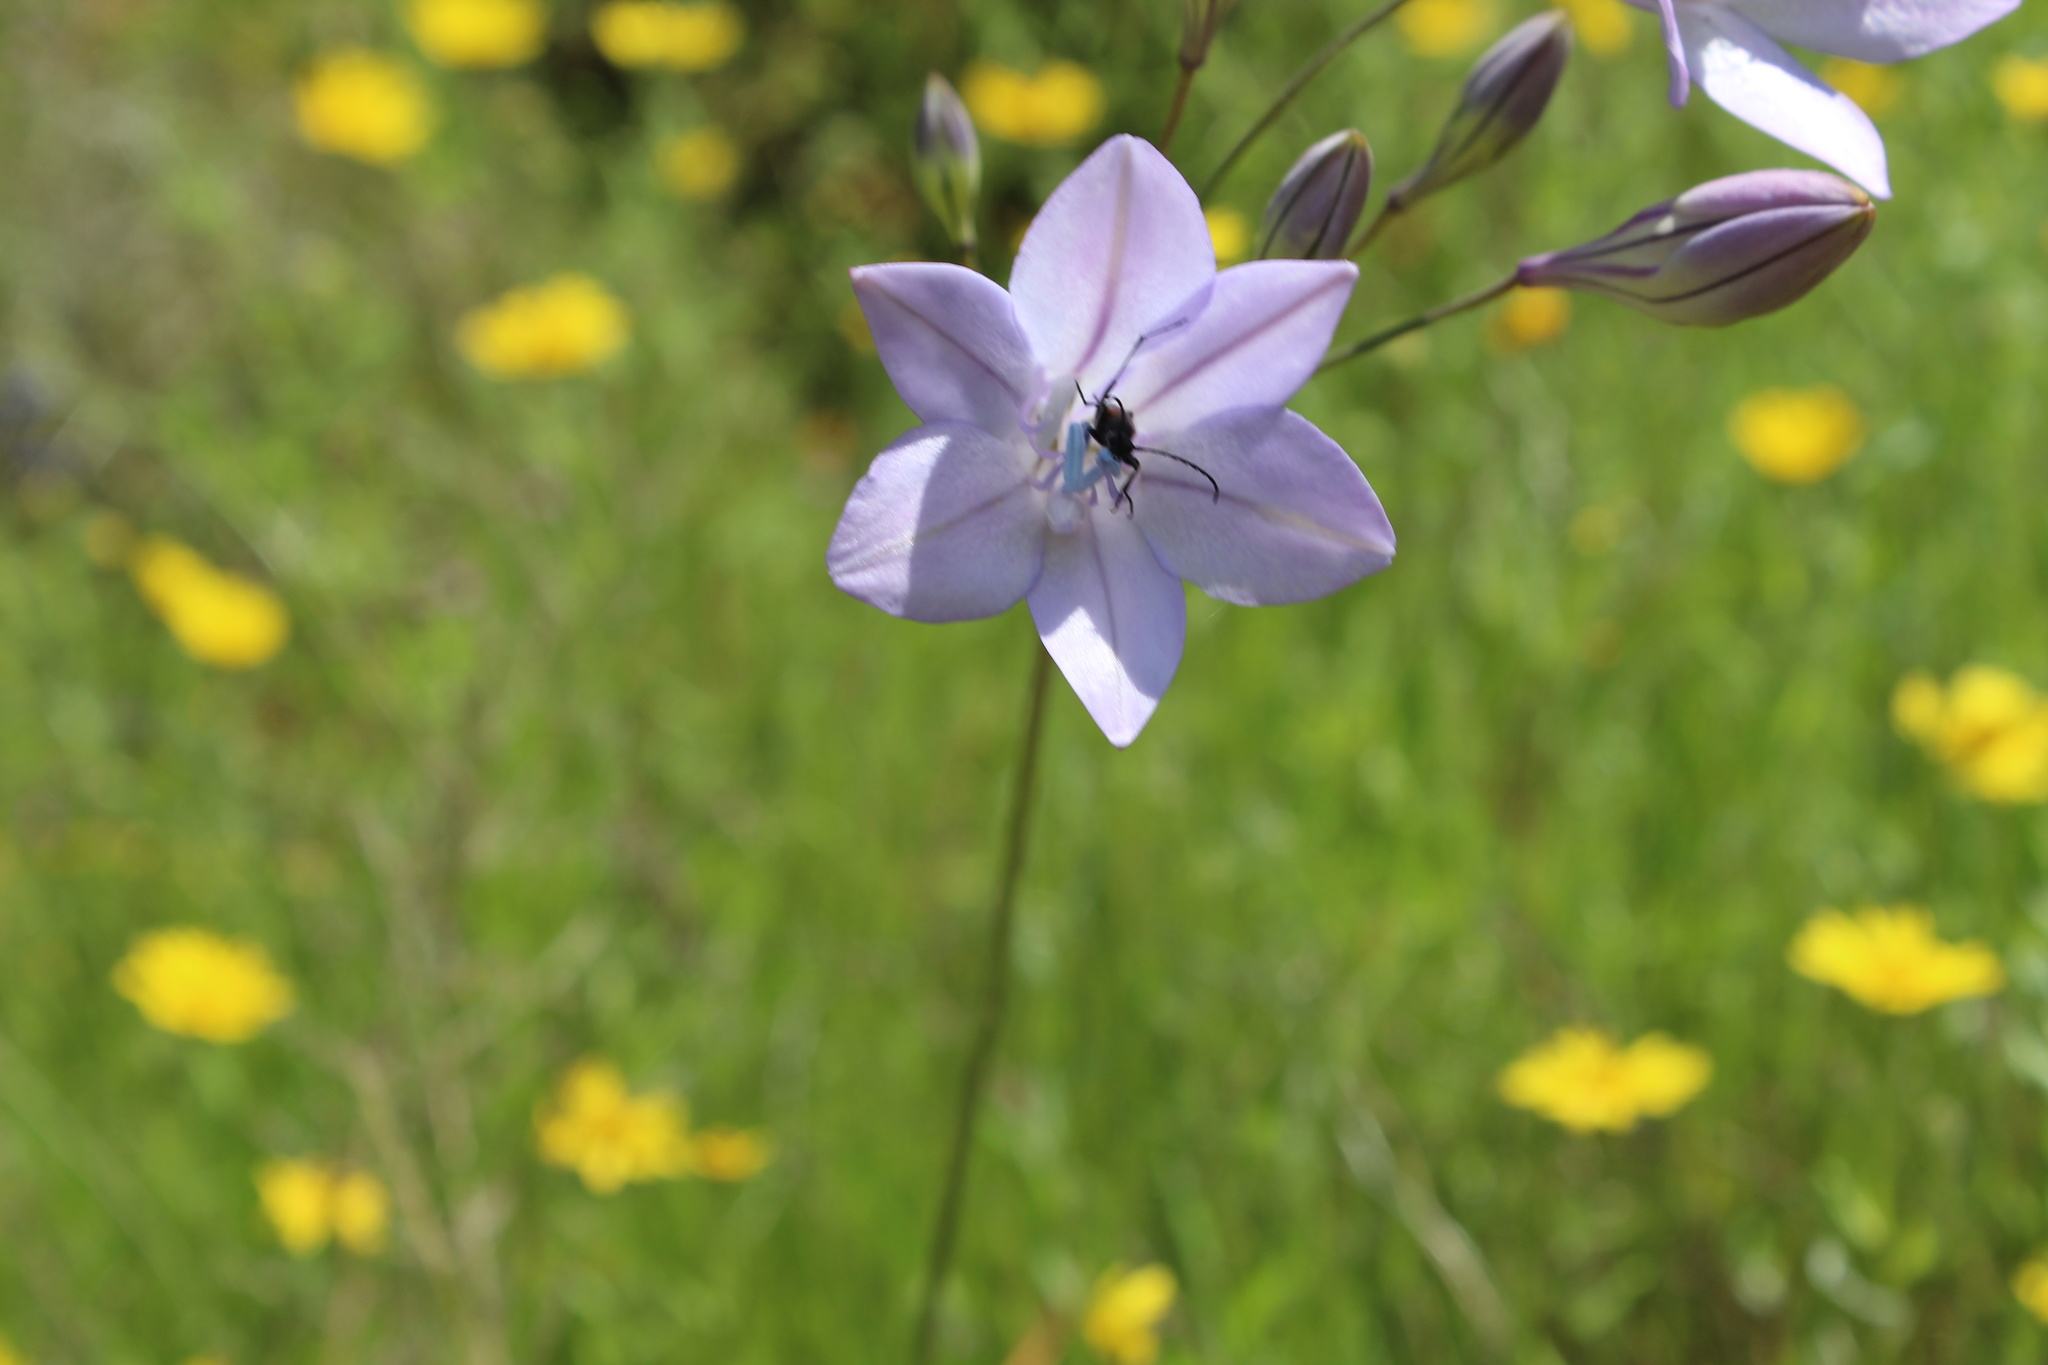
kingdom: Plantae
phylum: Tracheophyta
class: Liliopsida
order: Asparagales
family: Asparagaceae
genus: Triteleia
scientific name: Triteleia laxa
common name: Triplet-lily
